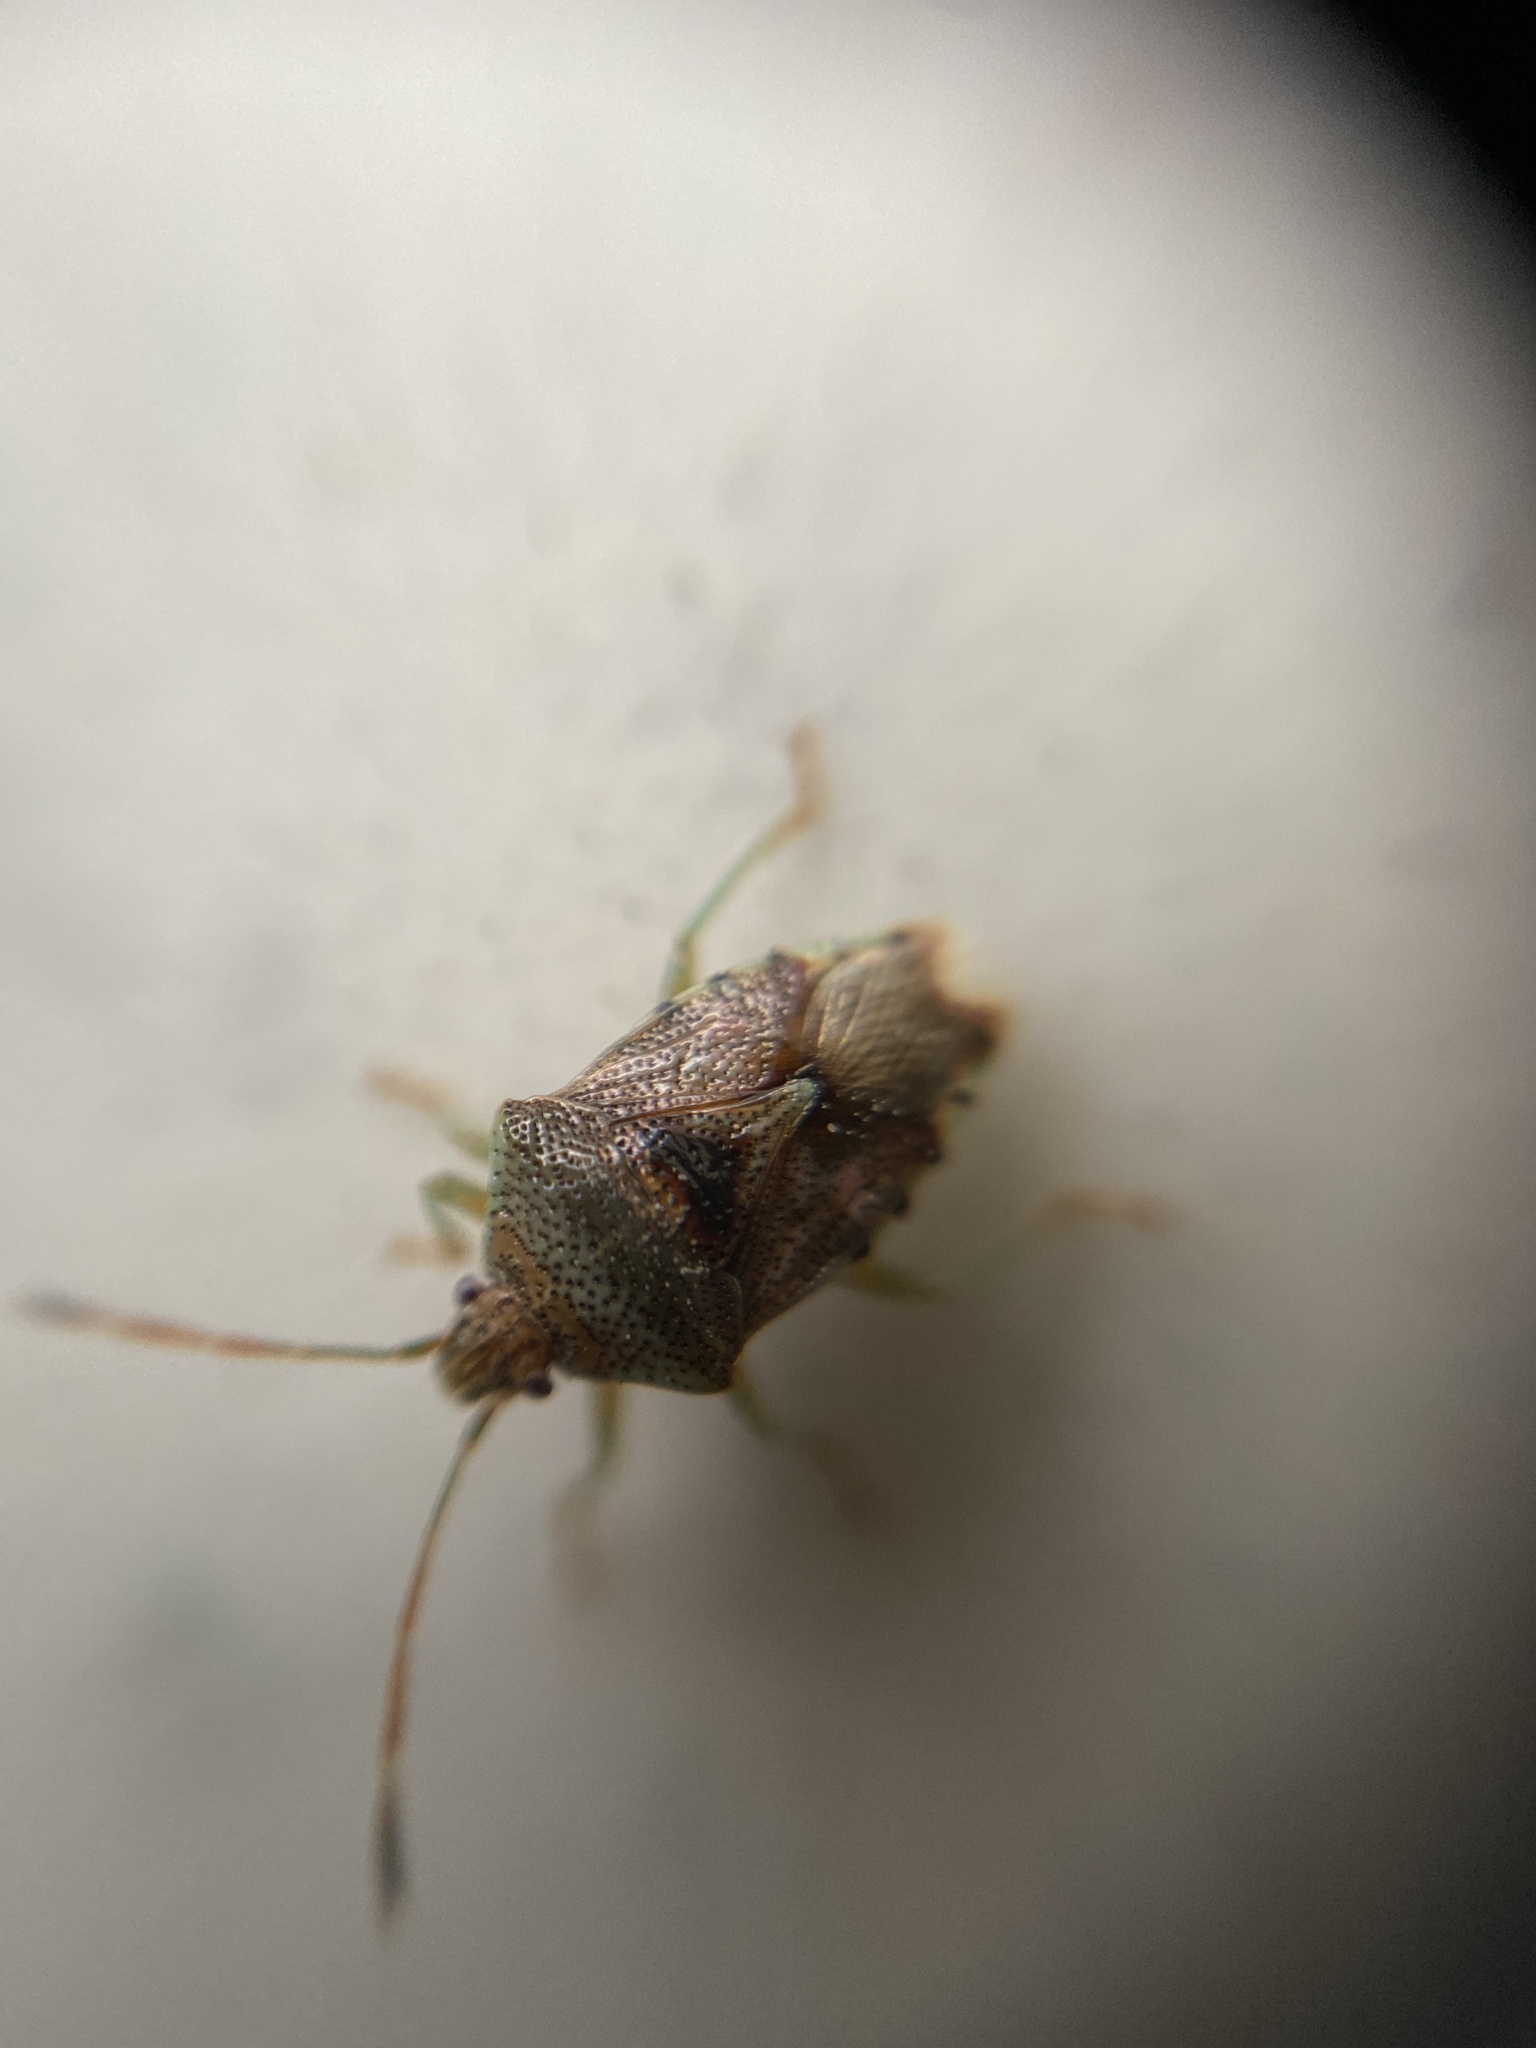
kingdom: Animalia
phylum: Arthropoda
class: Insecta
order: Hemiptera
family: Acanthosomatidae
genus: Elasmucha
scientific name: Elasmucha grisea
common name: Parent bug
